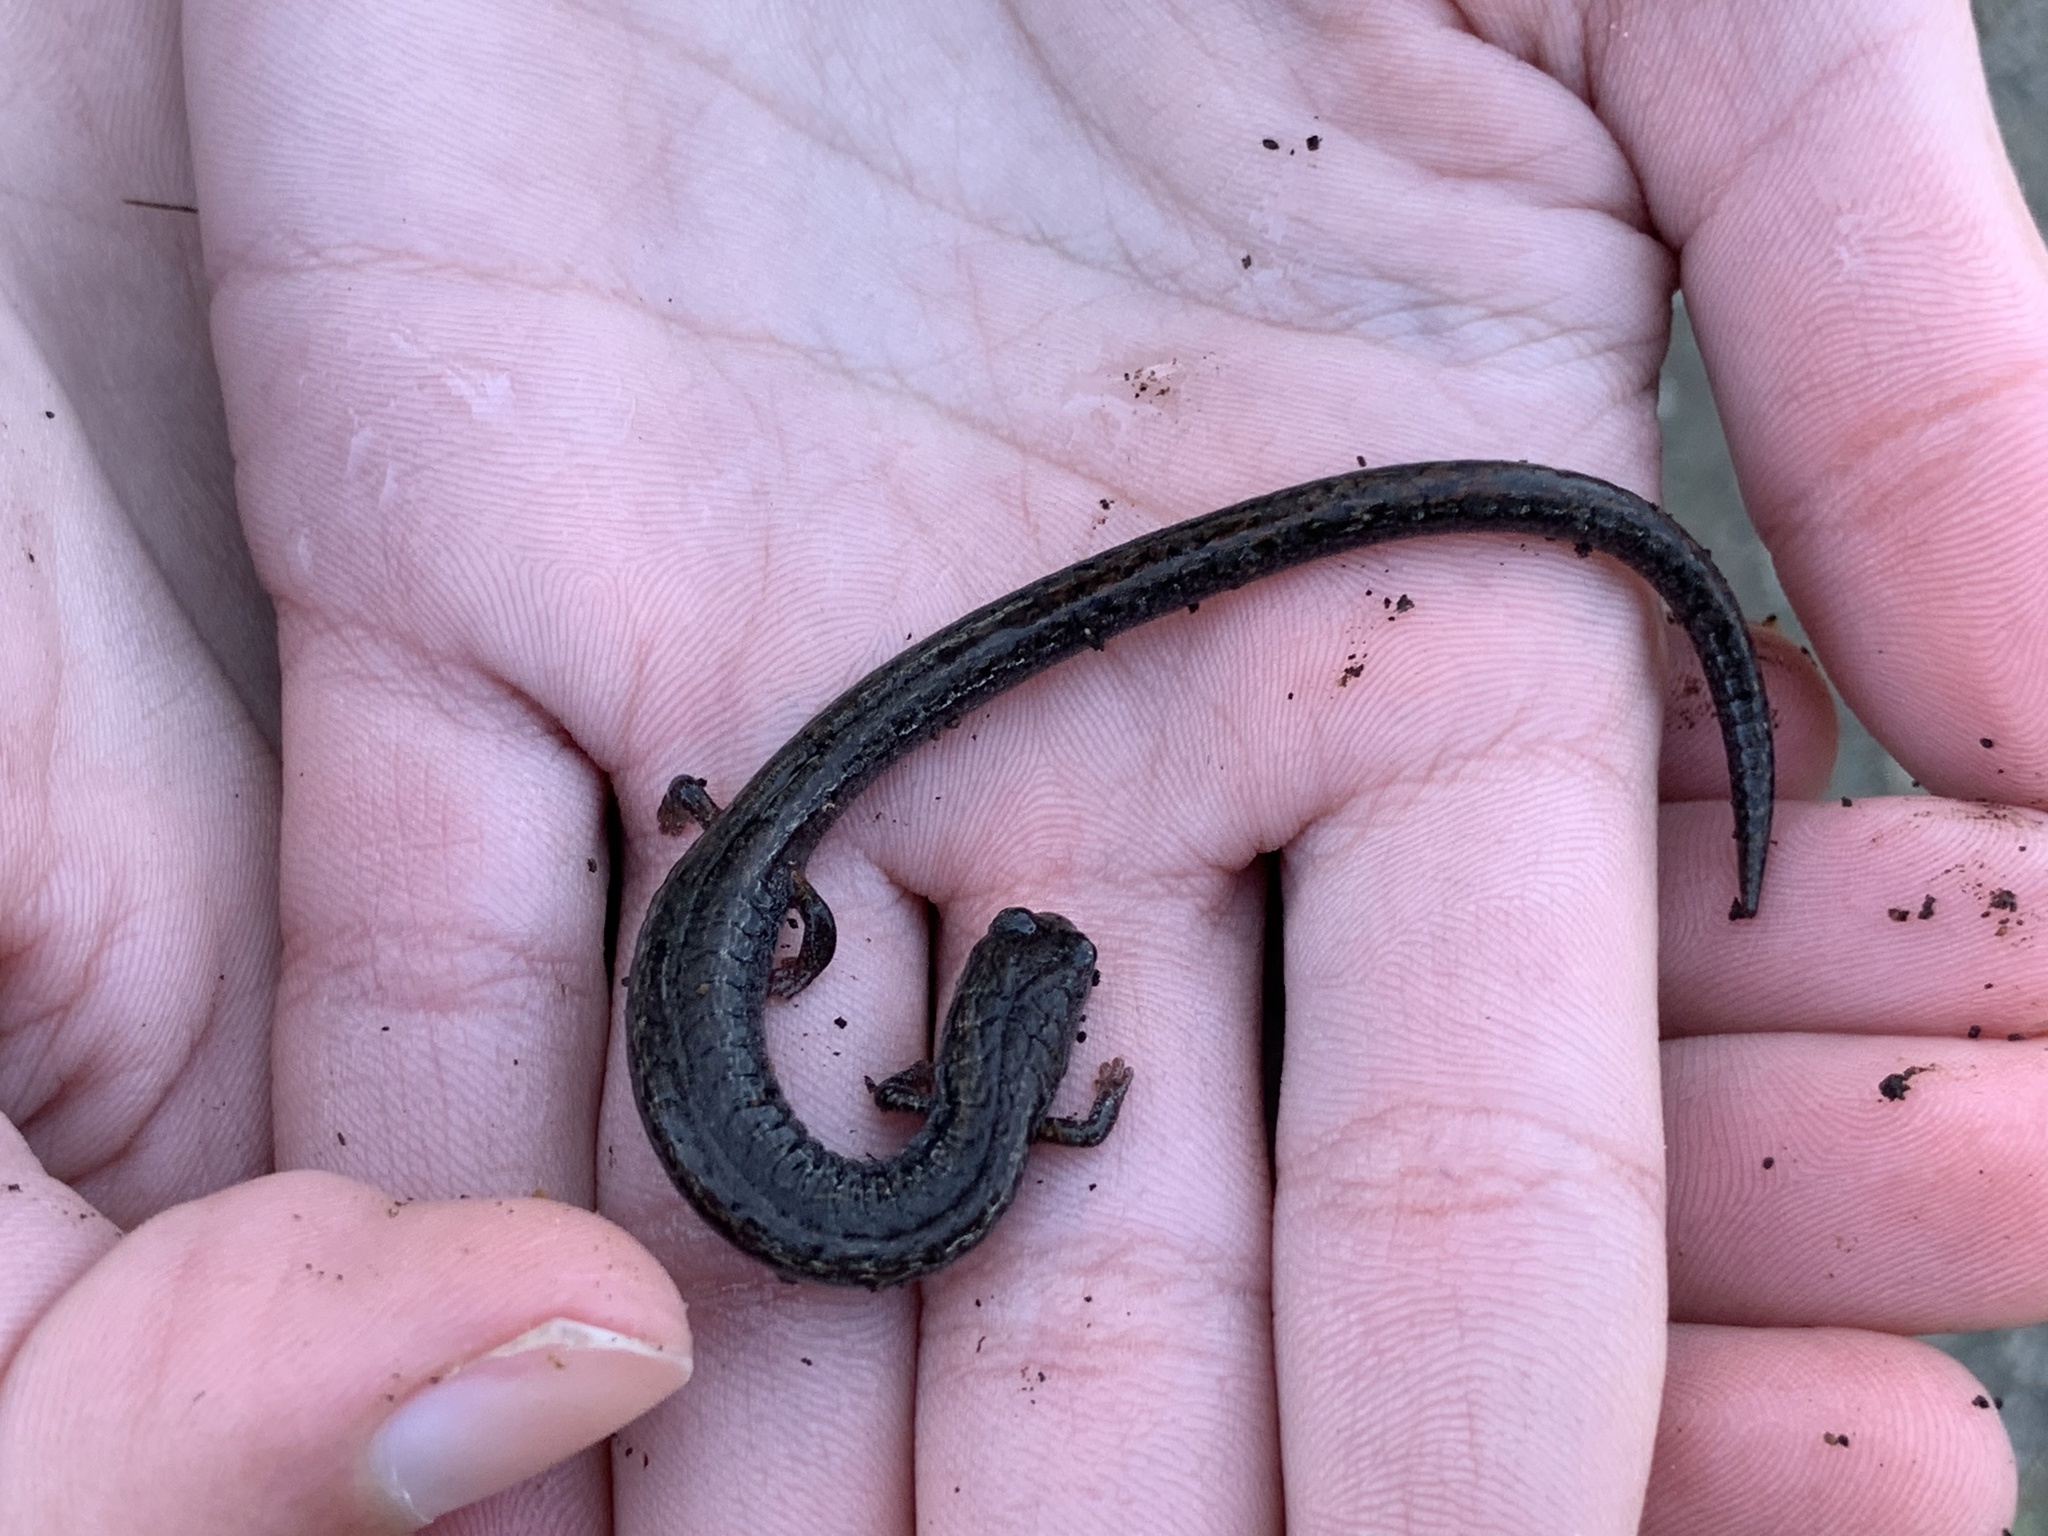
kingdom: Animalia
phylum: Chordata
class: Amphibia
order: Caudata
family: Plethodontidae
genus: Batrachoseps
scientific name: Batrachoseps attenuatus
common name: California slender salamander
